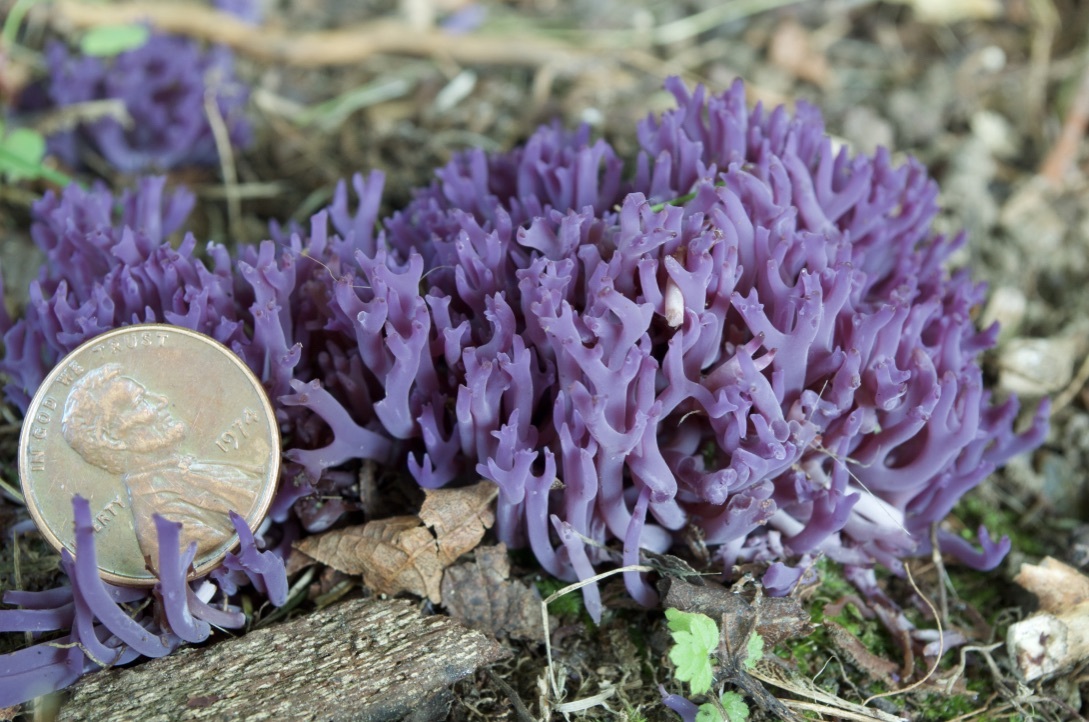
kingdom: Fungi
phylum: Basidiomycota
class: Agaricomycetes
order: Agaricales
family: Clavariaceae
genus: Clavaria
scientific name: Clavaria zollingeri
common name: Violet coral
